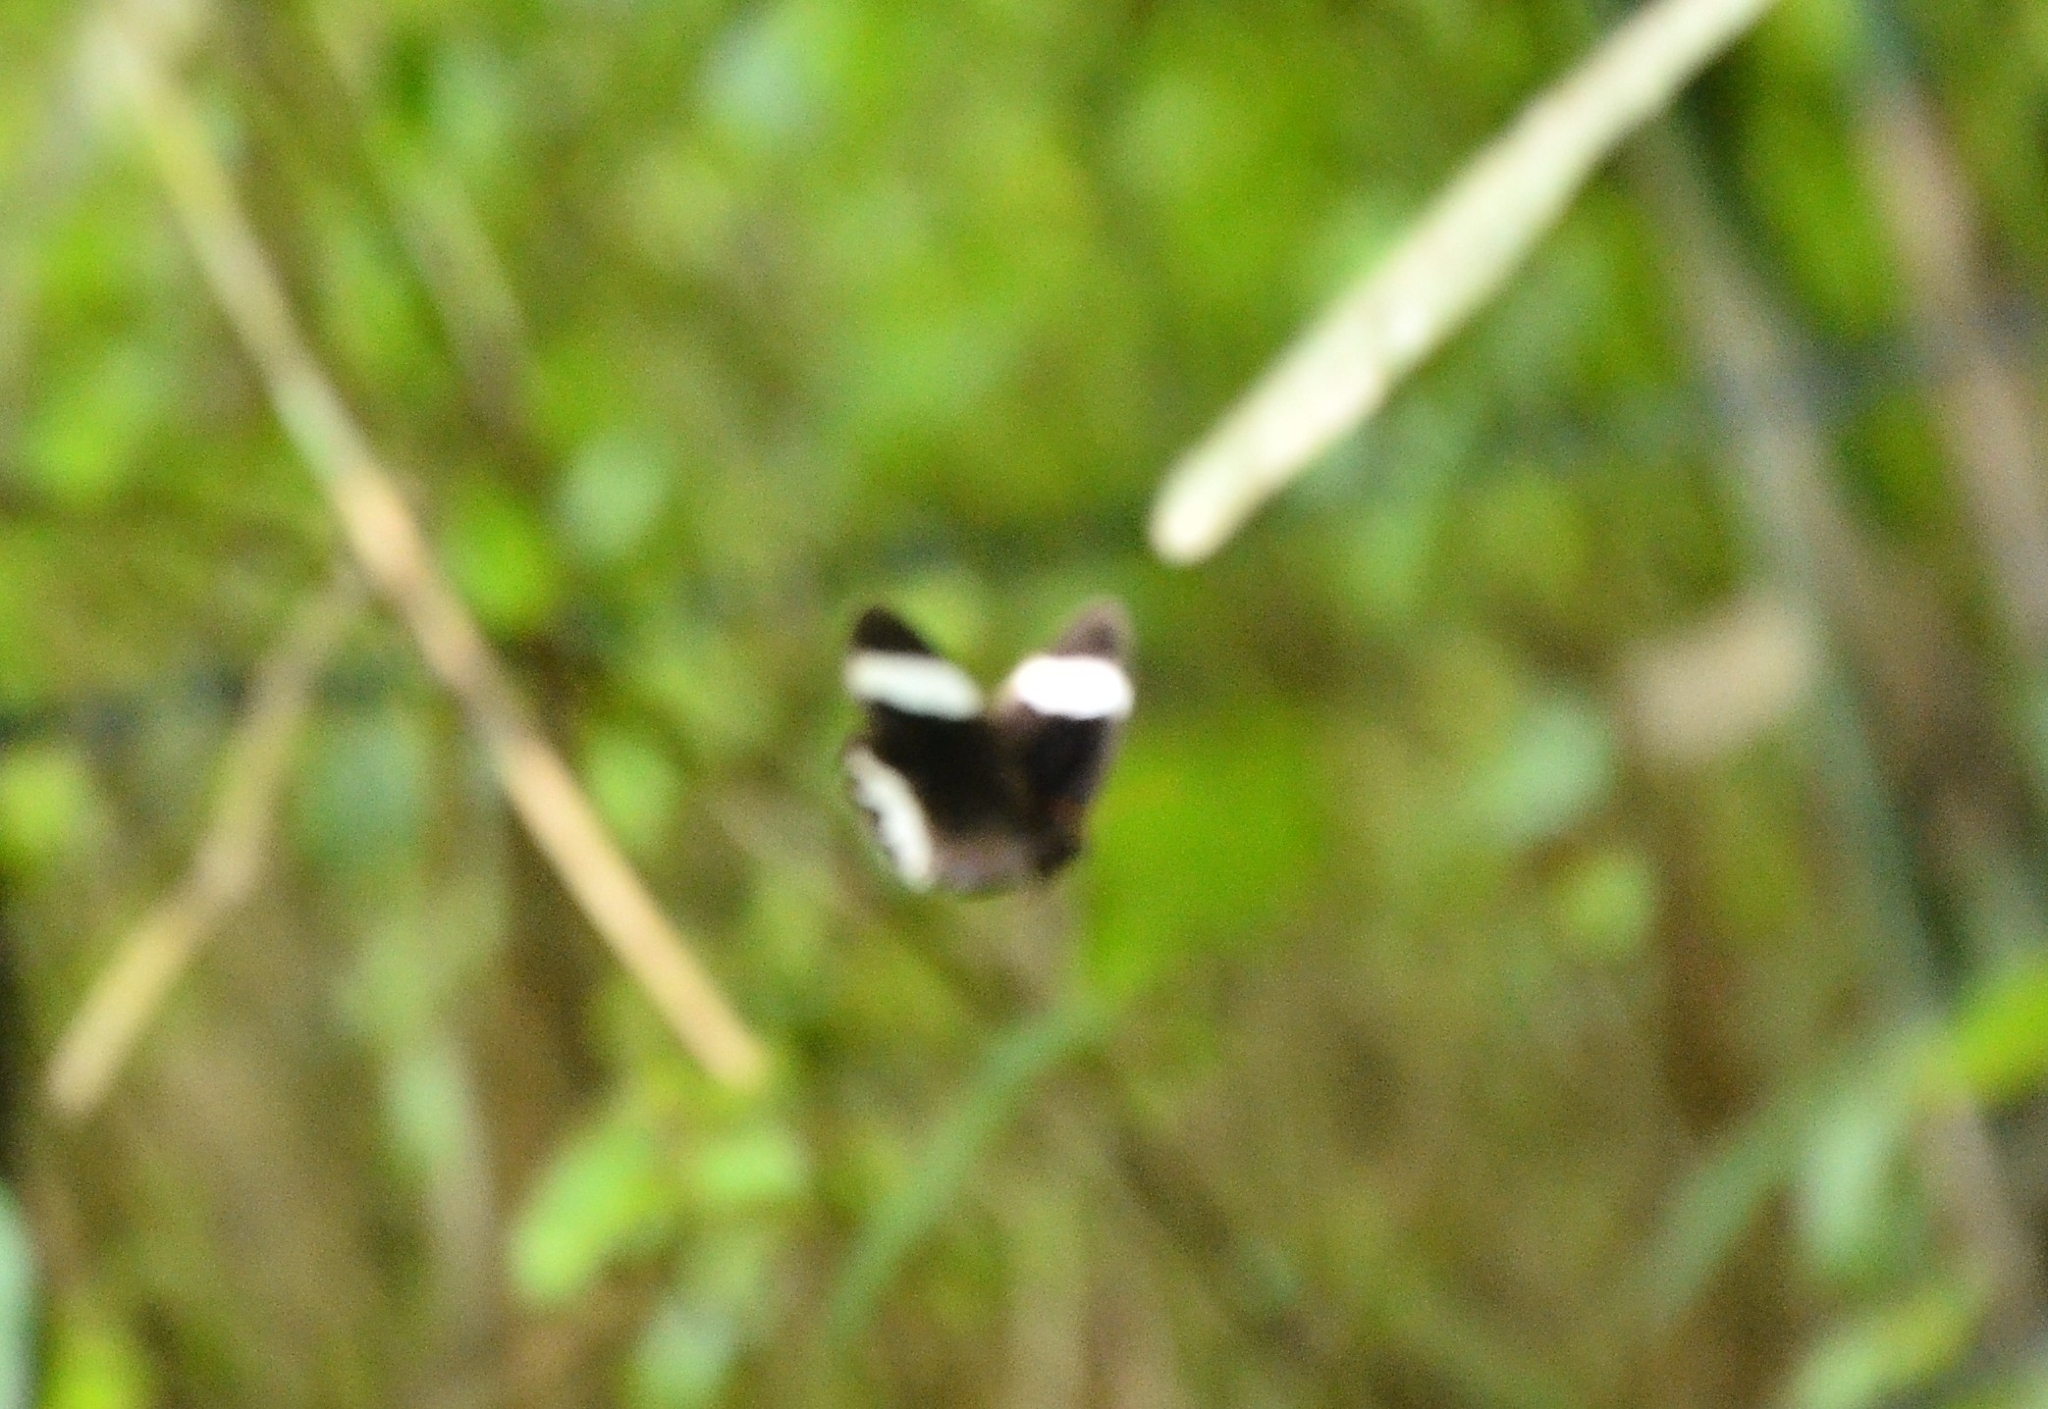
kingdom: Animalia
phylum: Arthropoda
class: Insecta
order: Lepidoptera
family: Nymphalidae
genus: Zipaetis
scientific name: Zipaetis saitis
